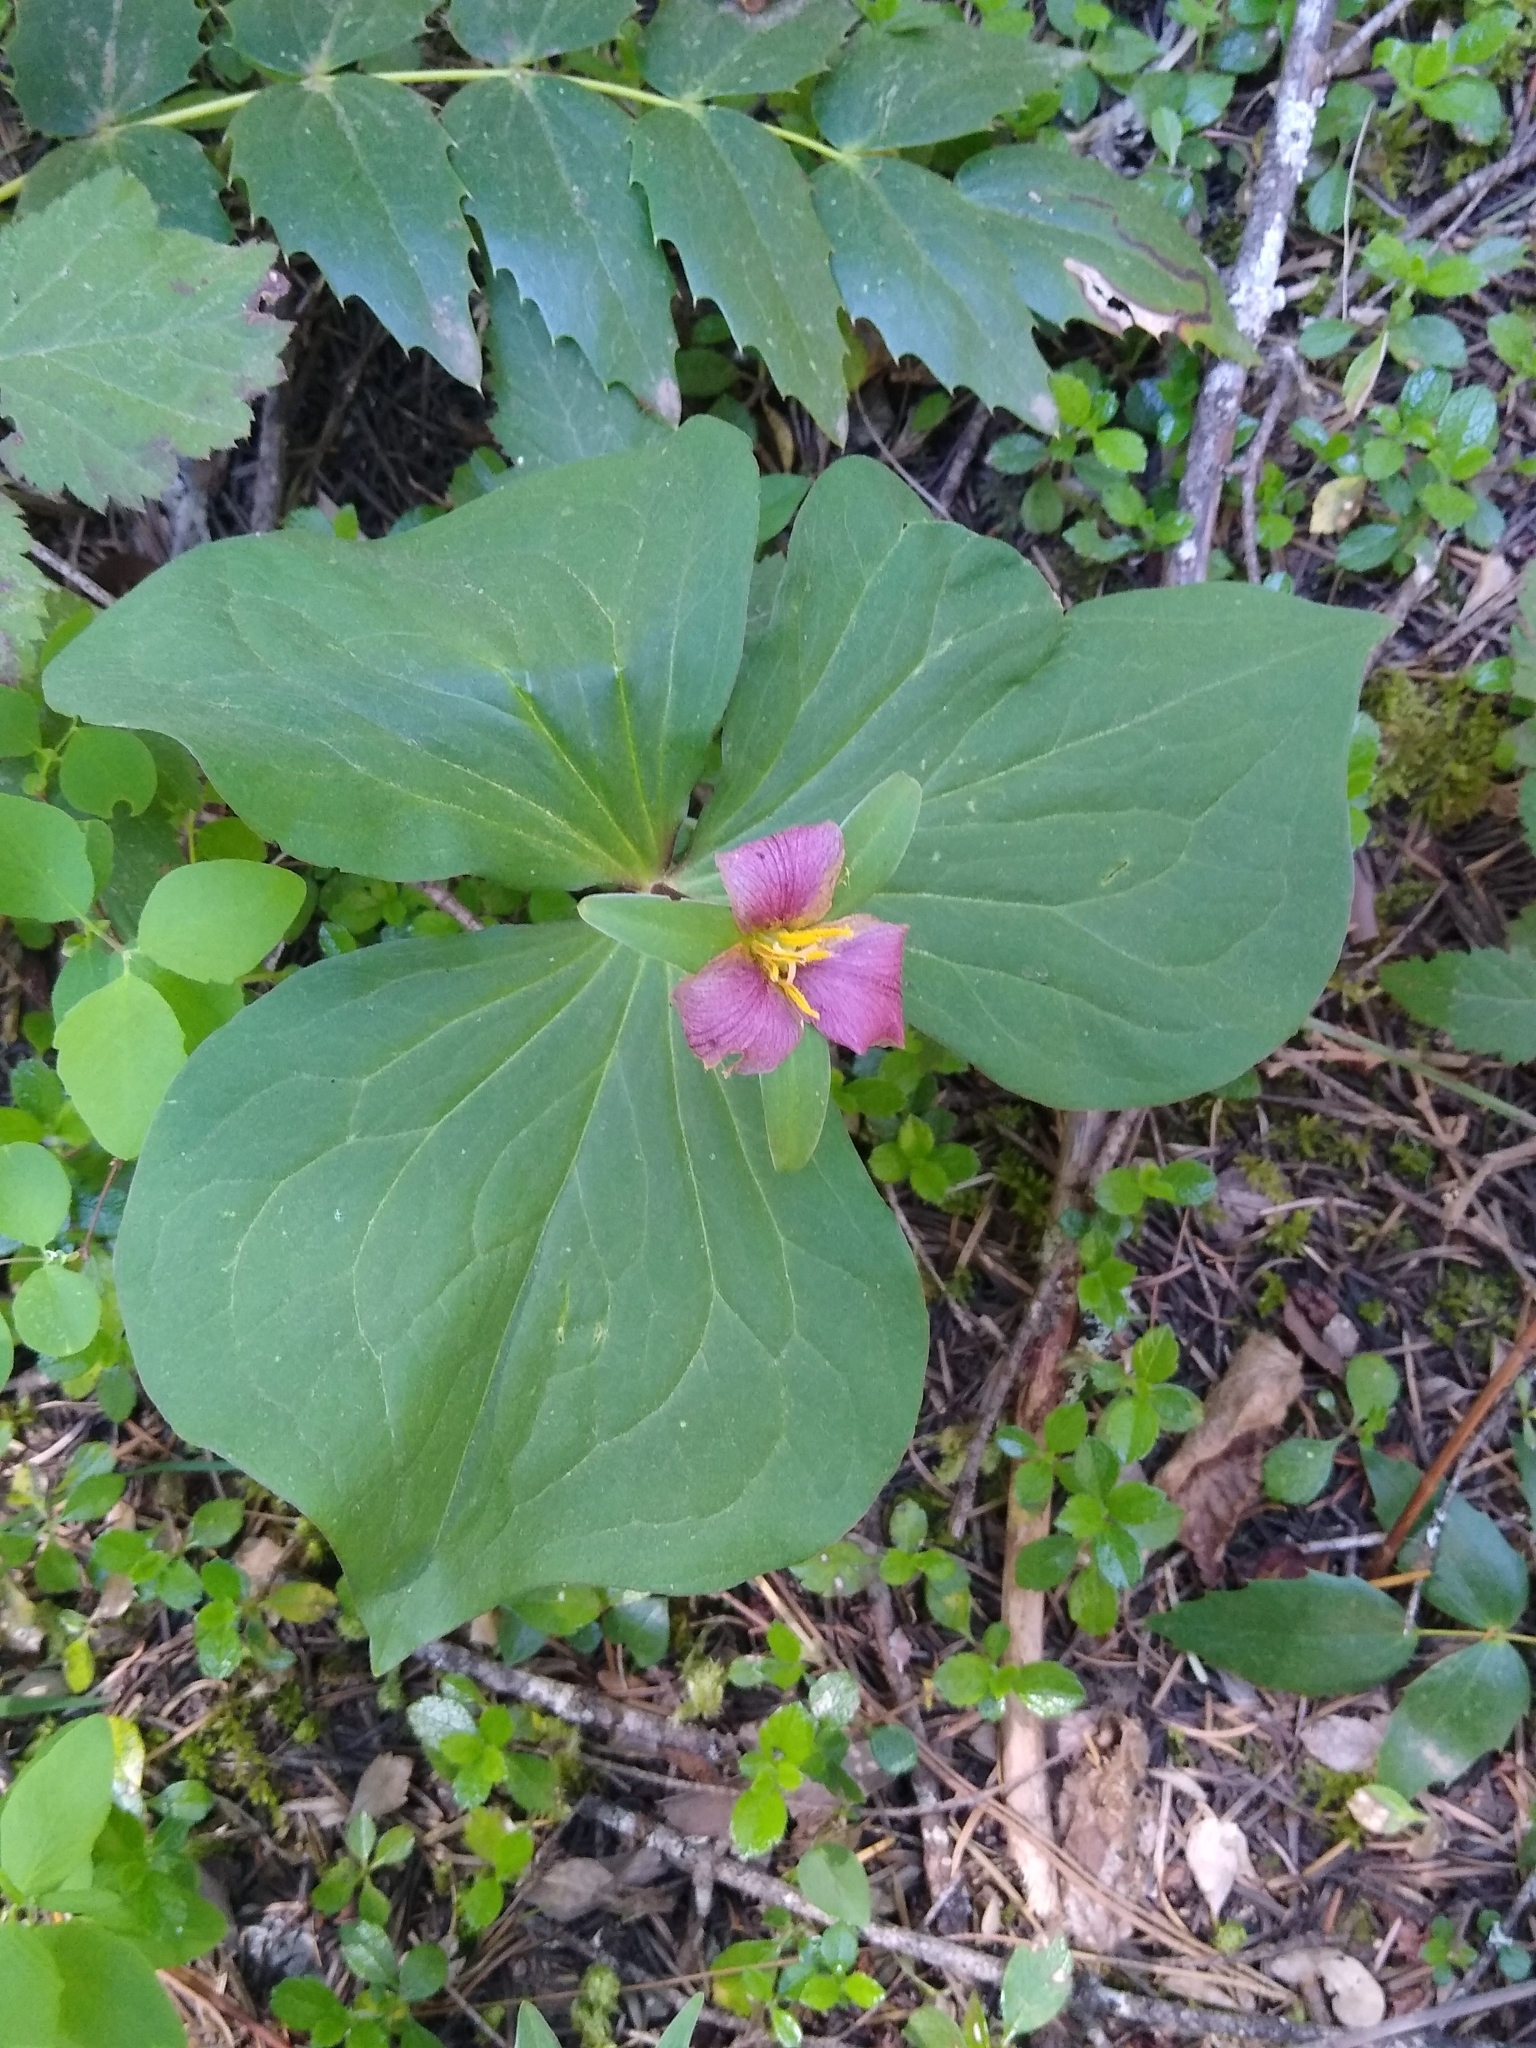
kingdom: Plantae
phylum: Tracheophyta
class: Liliopsida
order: Liliales
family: Melanthiaceae
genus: Trillium
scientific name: Trillium ovatum
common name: Pacific trillium
